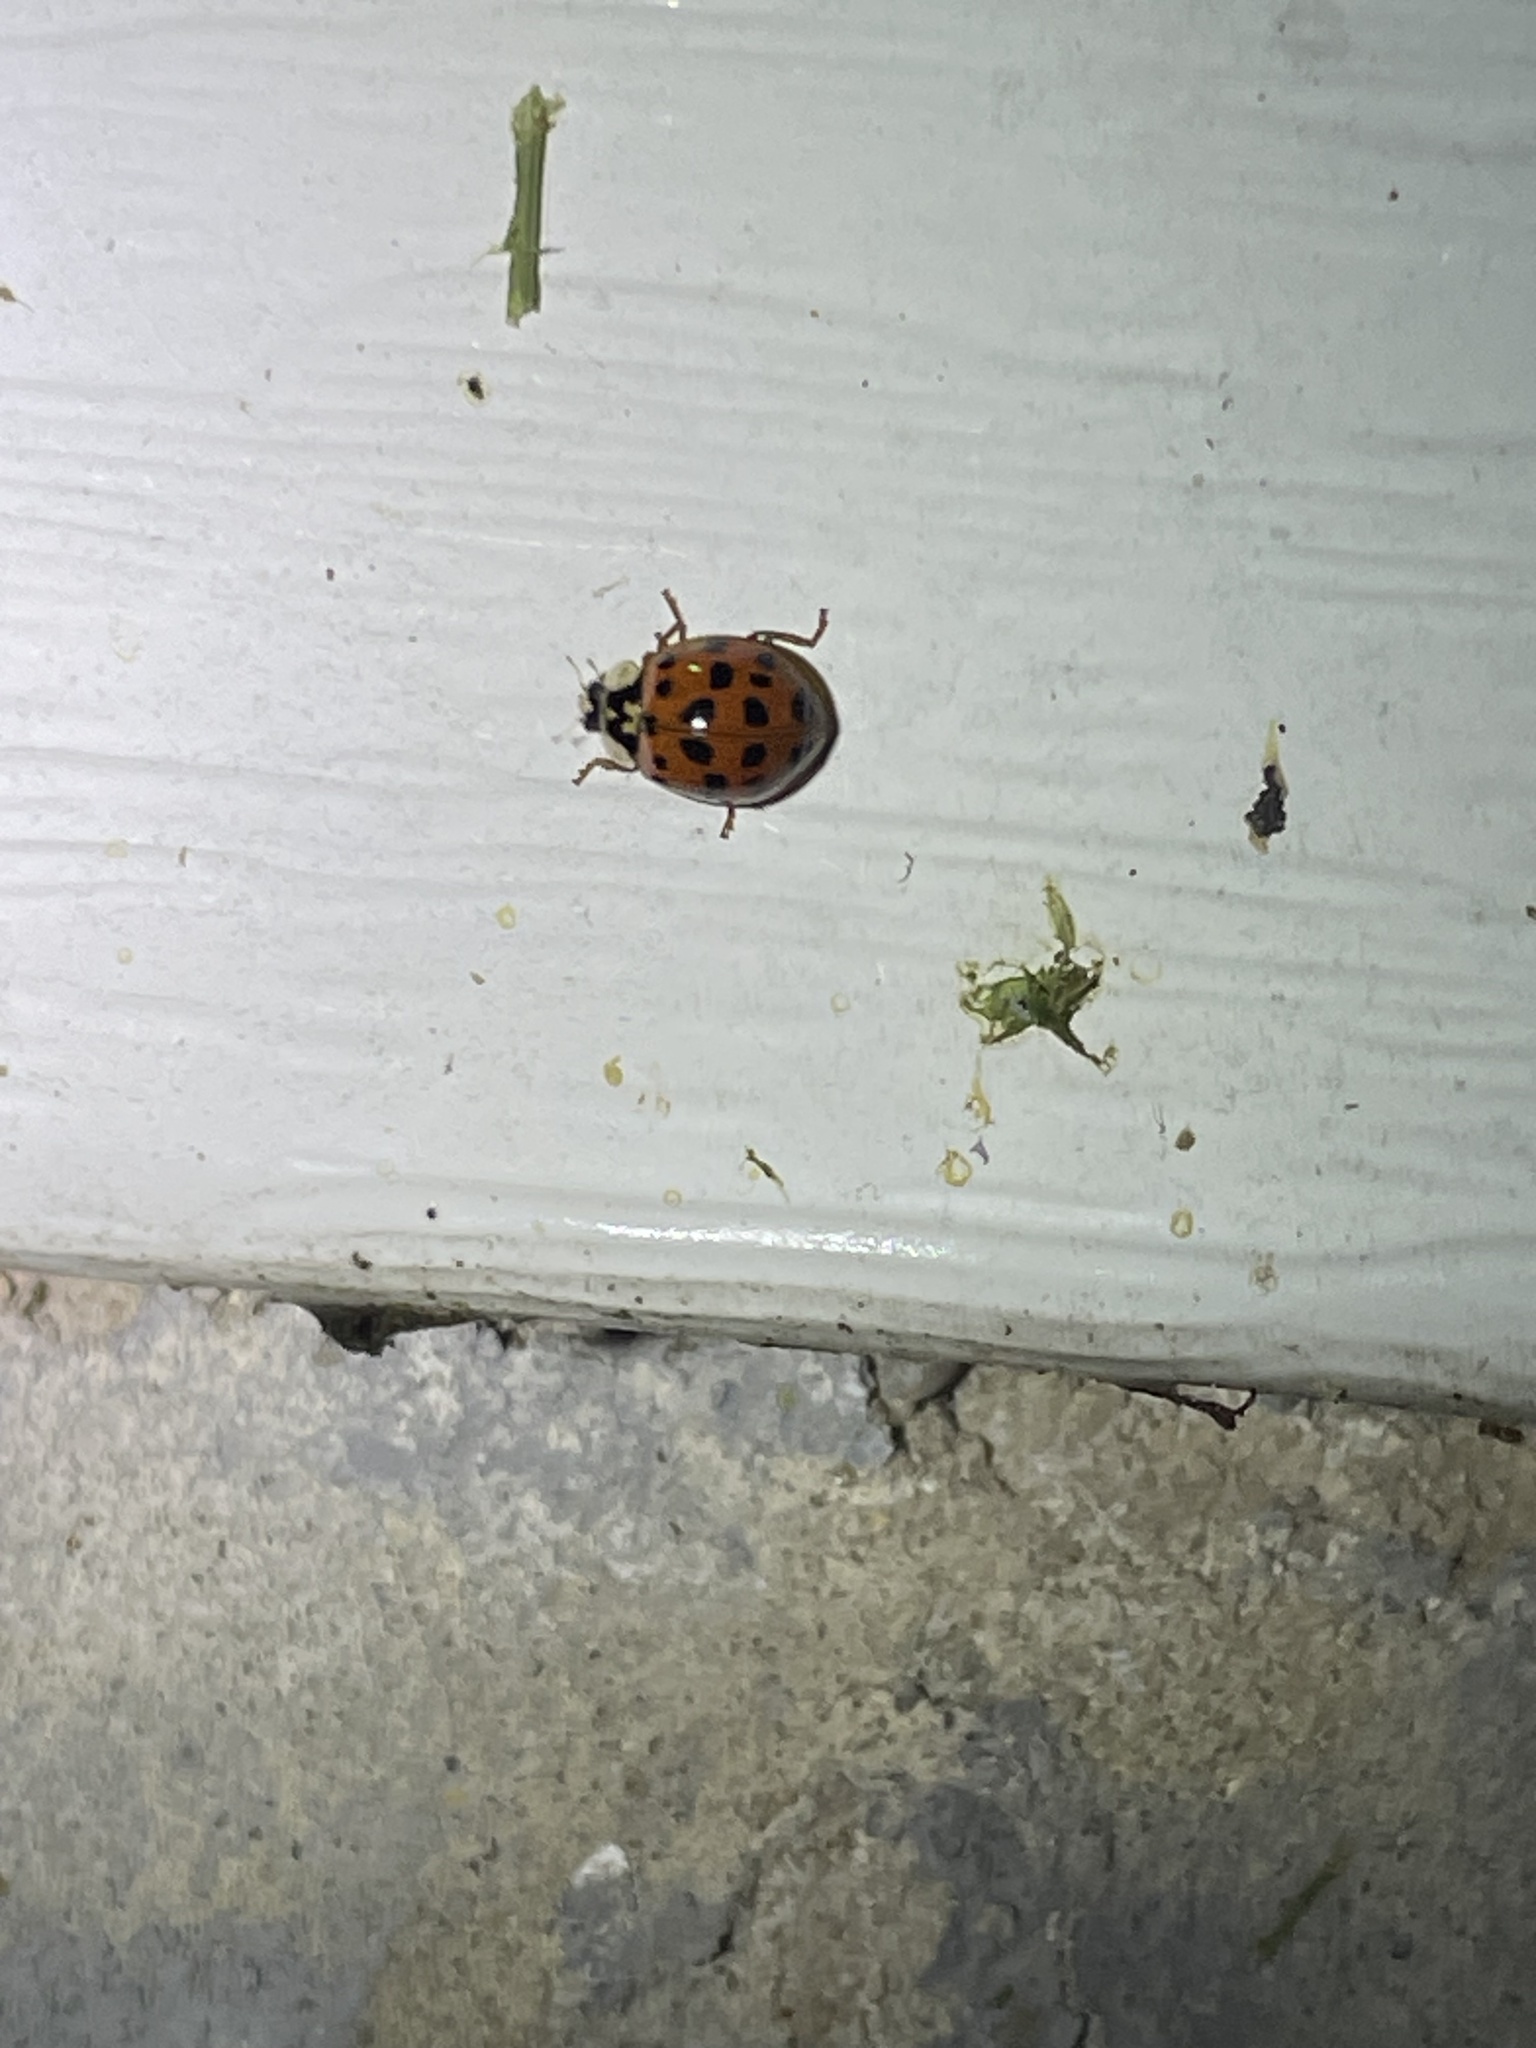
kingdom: Animalia
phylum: Arthropoda
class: Insecta
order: Coleoptera
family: Coccinellidae
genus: Harmonia
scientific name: Harmonia axyridis
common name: Harlequin ladybird
